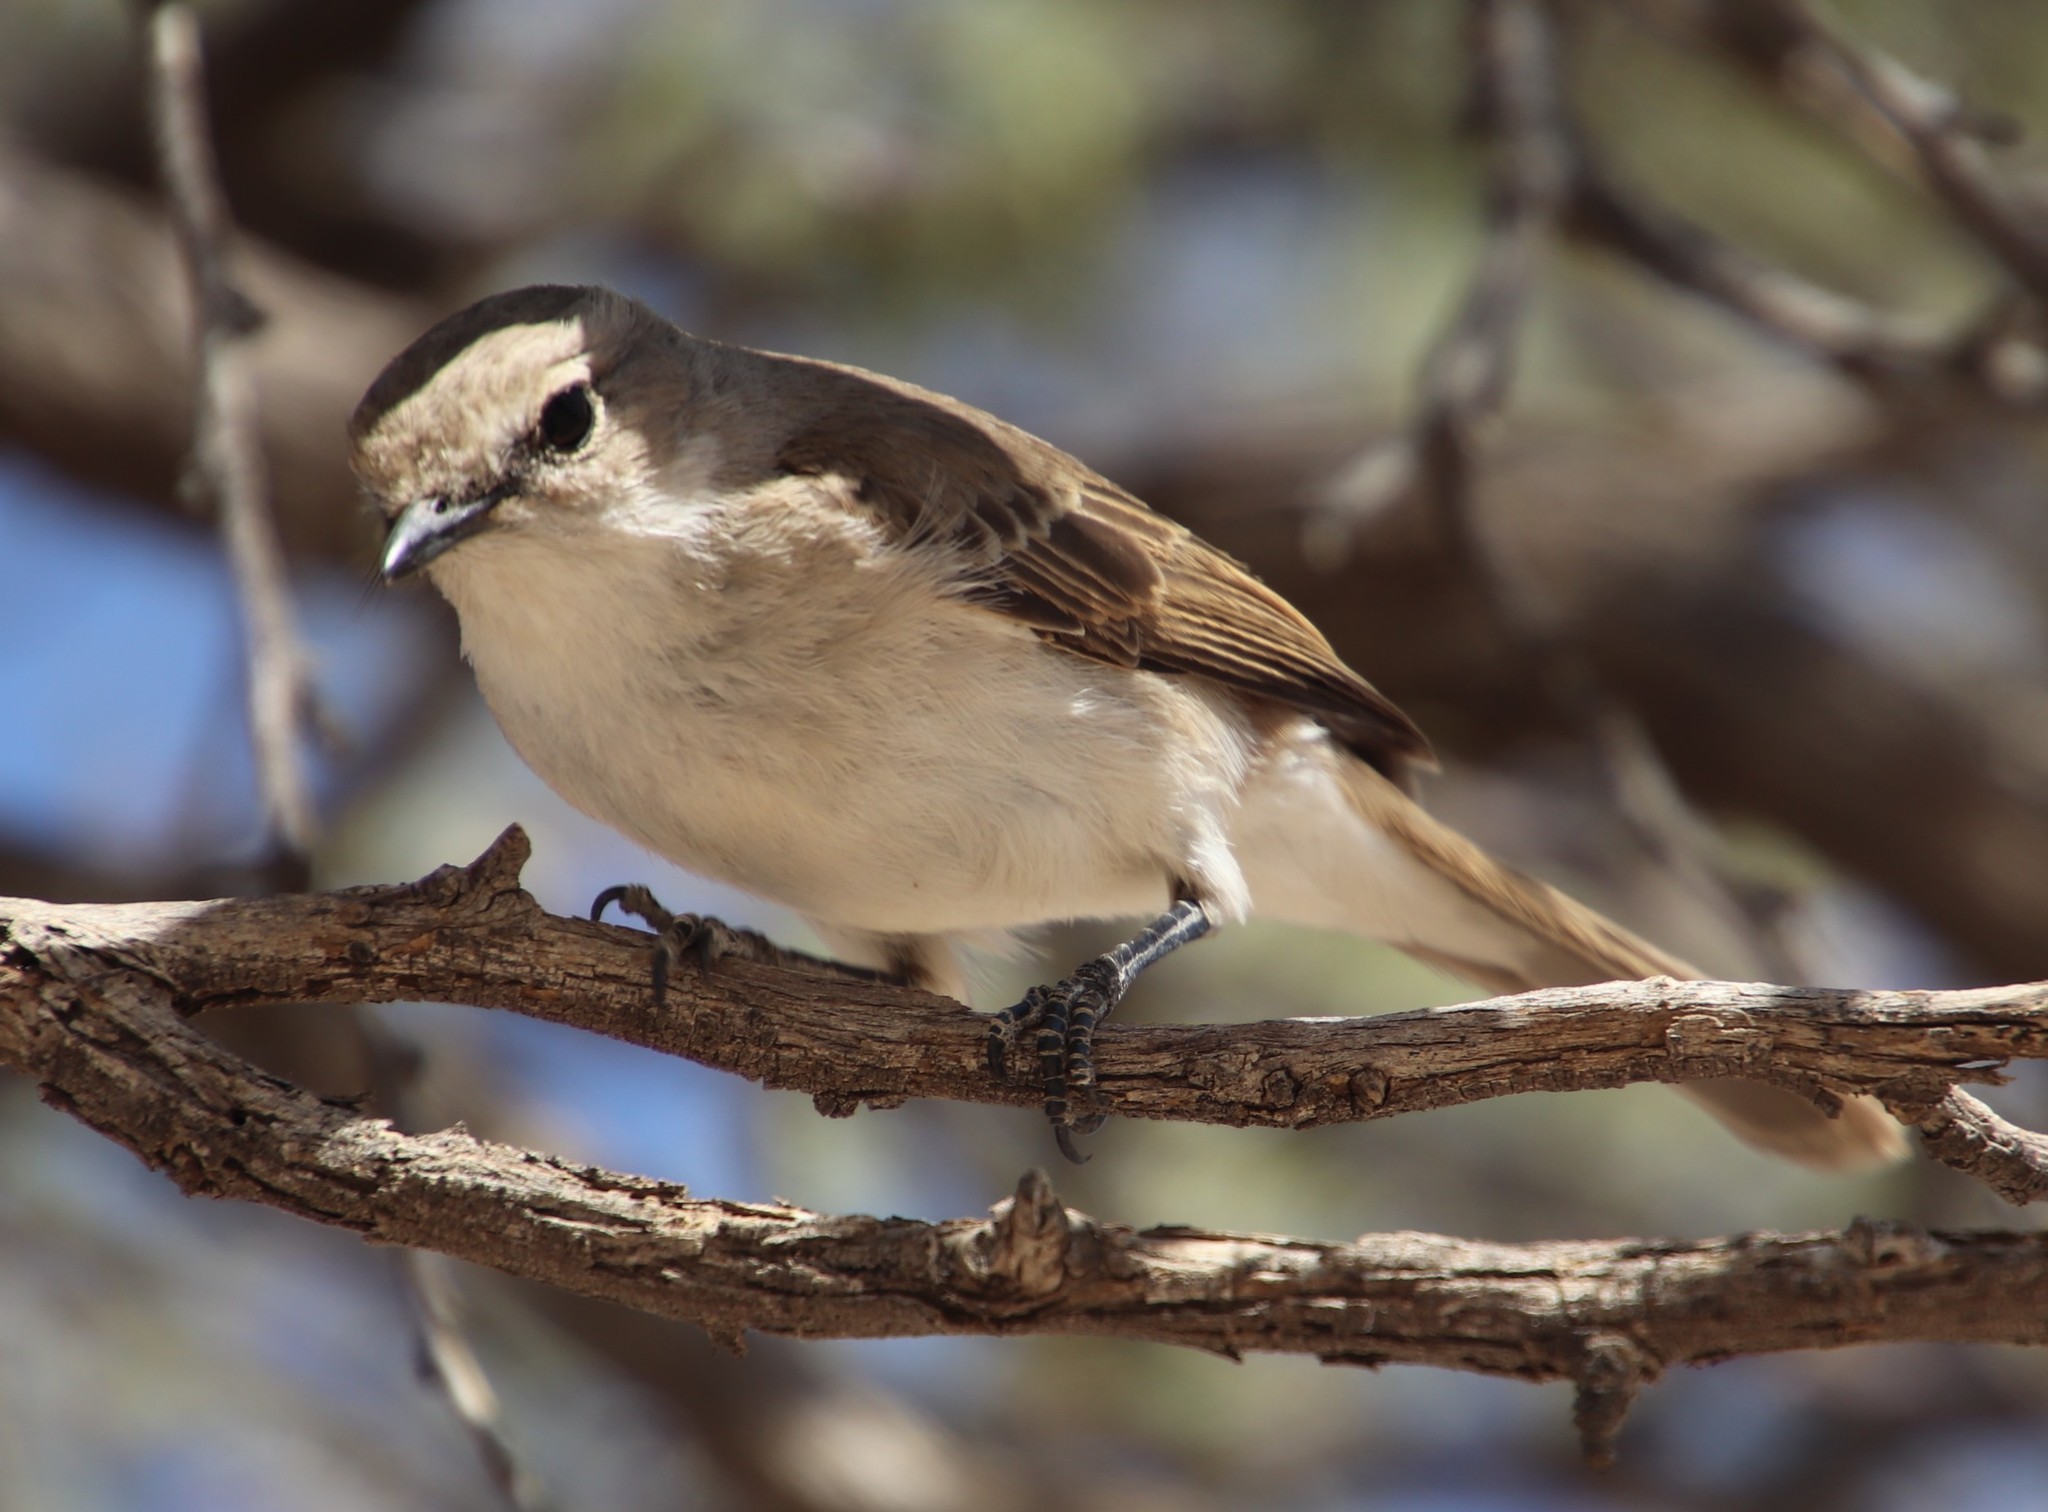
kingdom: Animalia
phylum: Chordata
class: Aves
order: Passeriformes
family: Muscicapidae
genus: Bradornis
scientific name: Bradornis mariquensis
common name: Marico flycatcher
